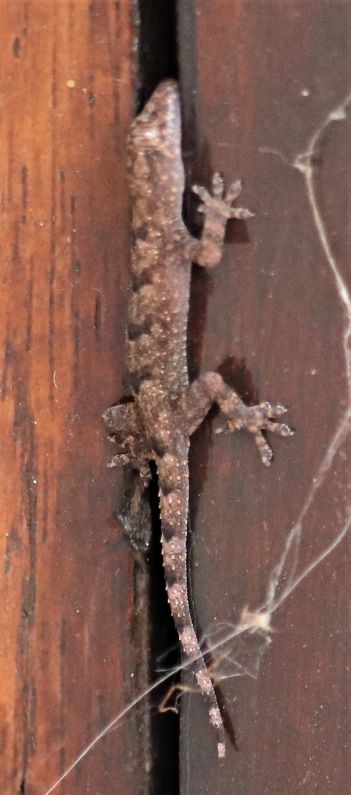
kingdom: Animalia
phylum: Chordata
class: Squamata
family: Gekkonidae
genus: Hemidactylus
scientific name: Hemidactylus mabouia
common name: House gecko
